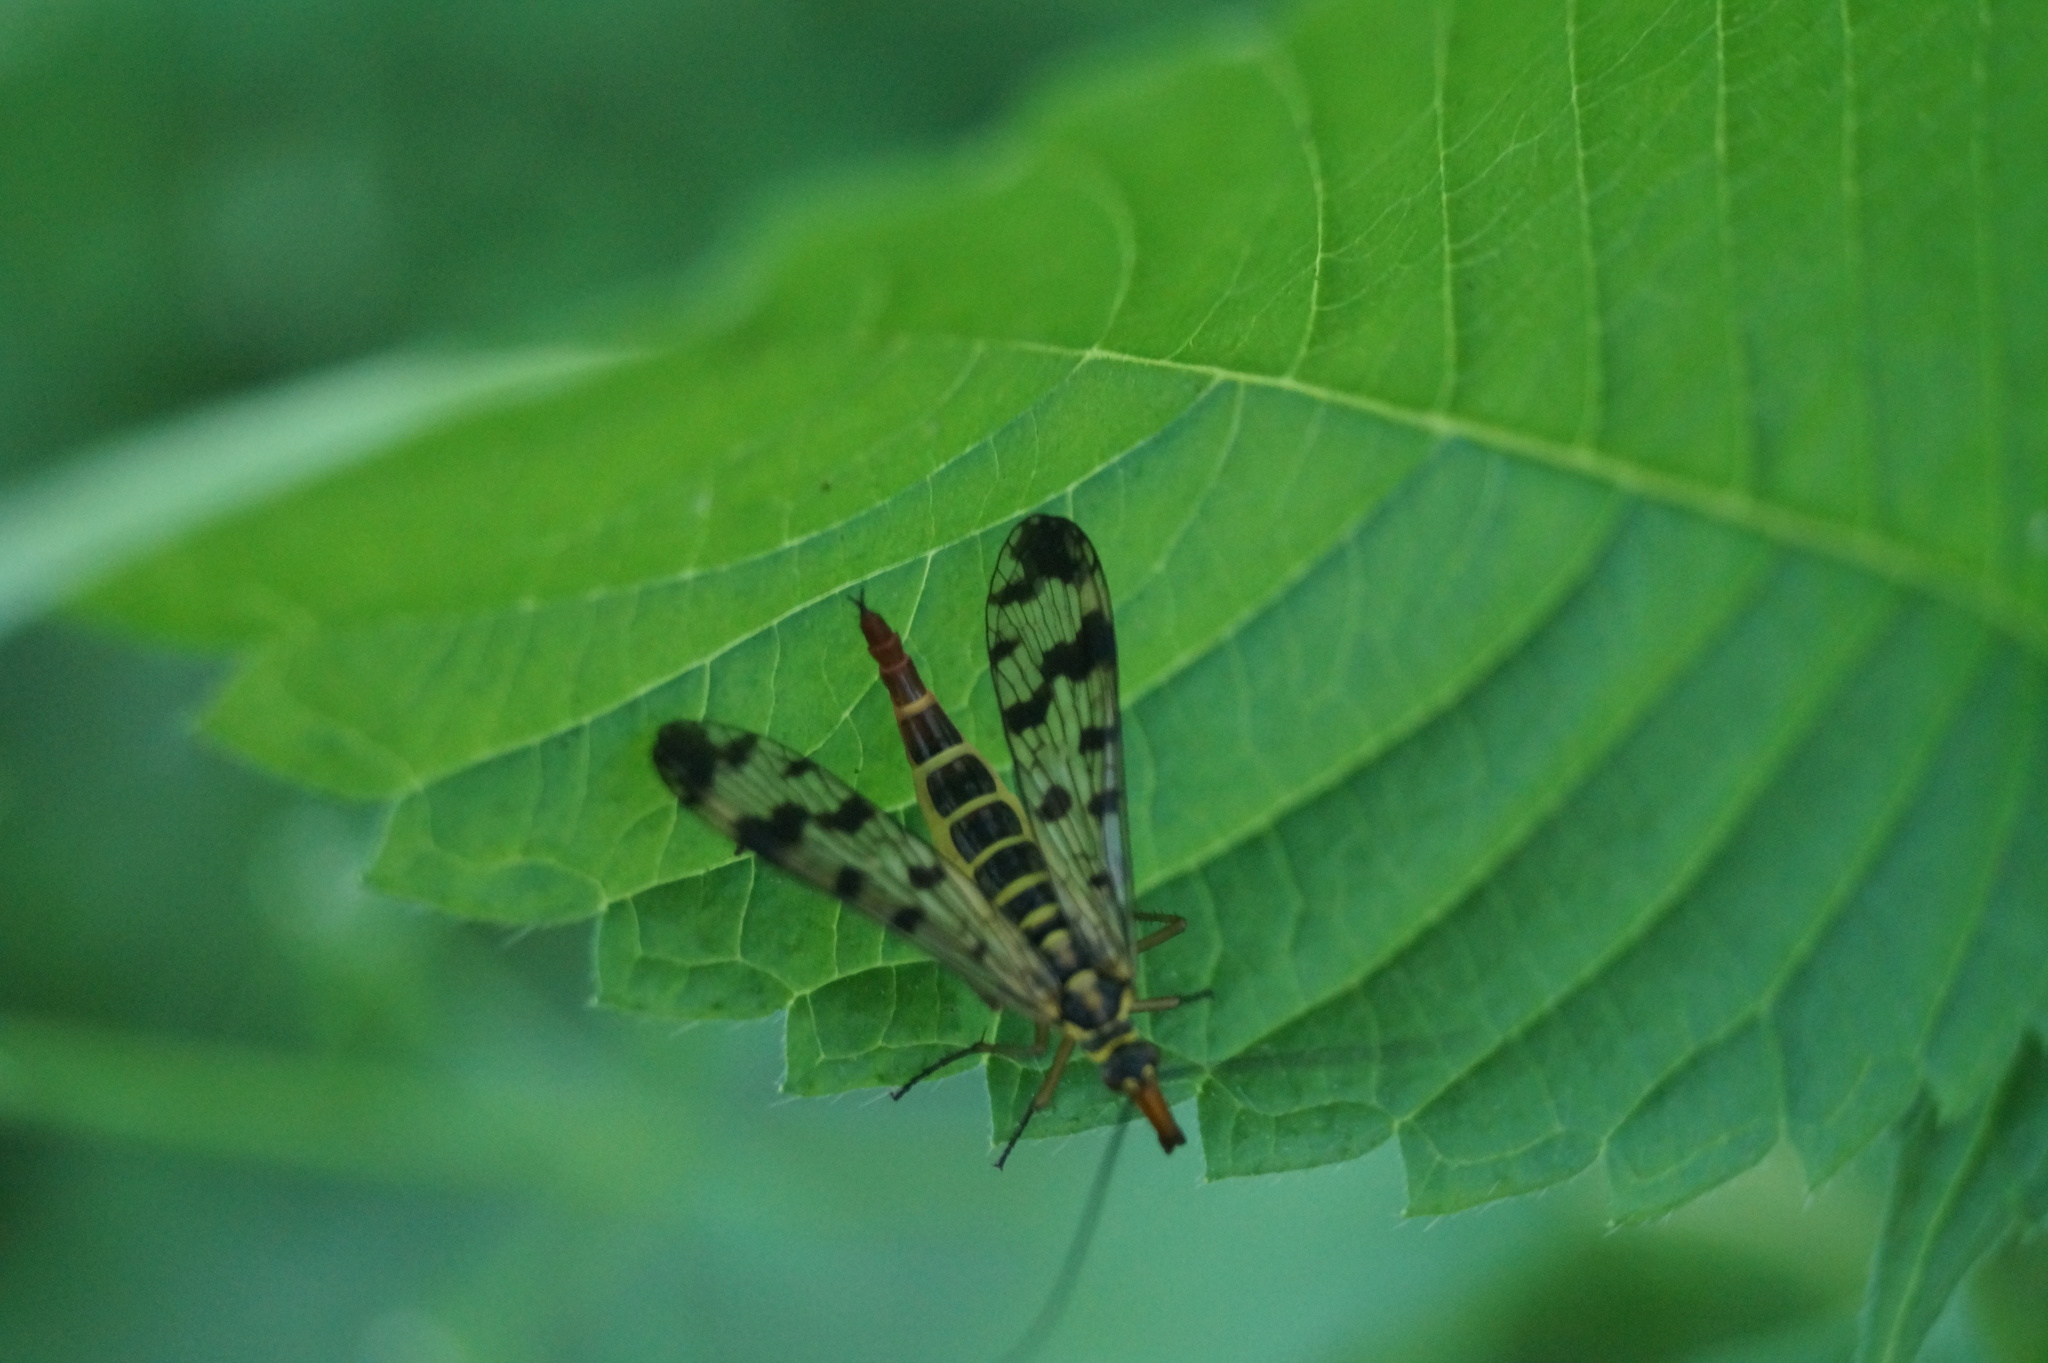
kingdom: Animalia
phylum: Arthropoda
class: Insecta
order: Mecoptera
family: Panorpidae
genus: Panorpa
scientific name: Panorpa communis
